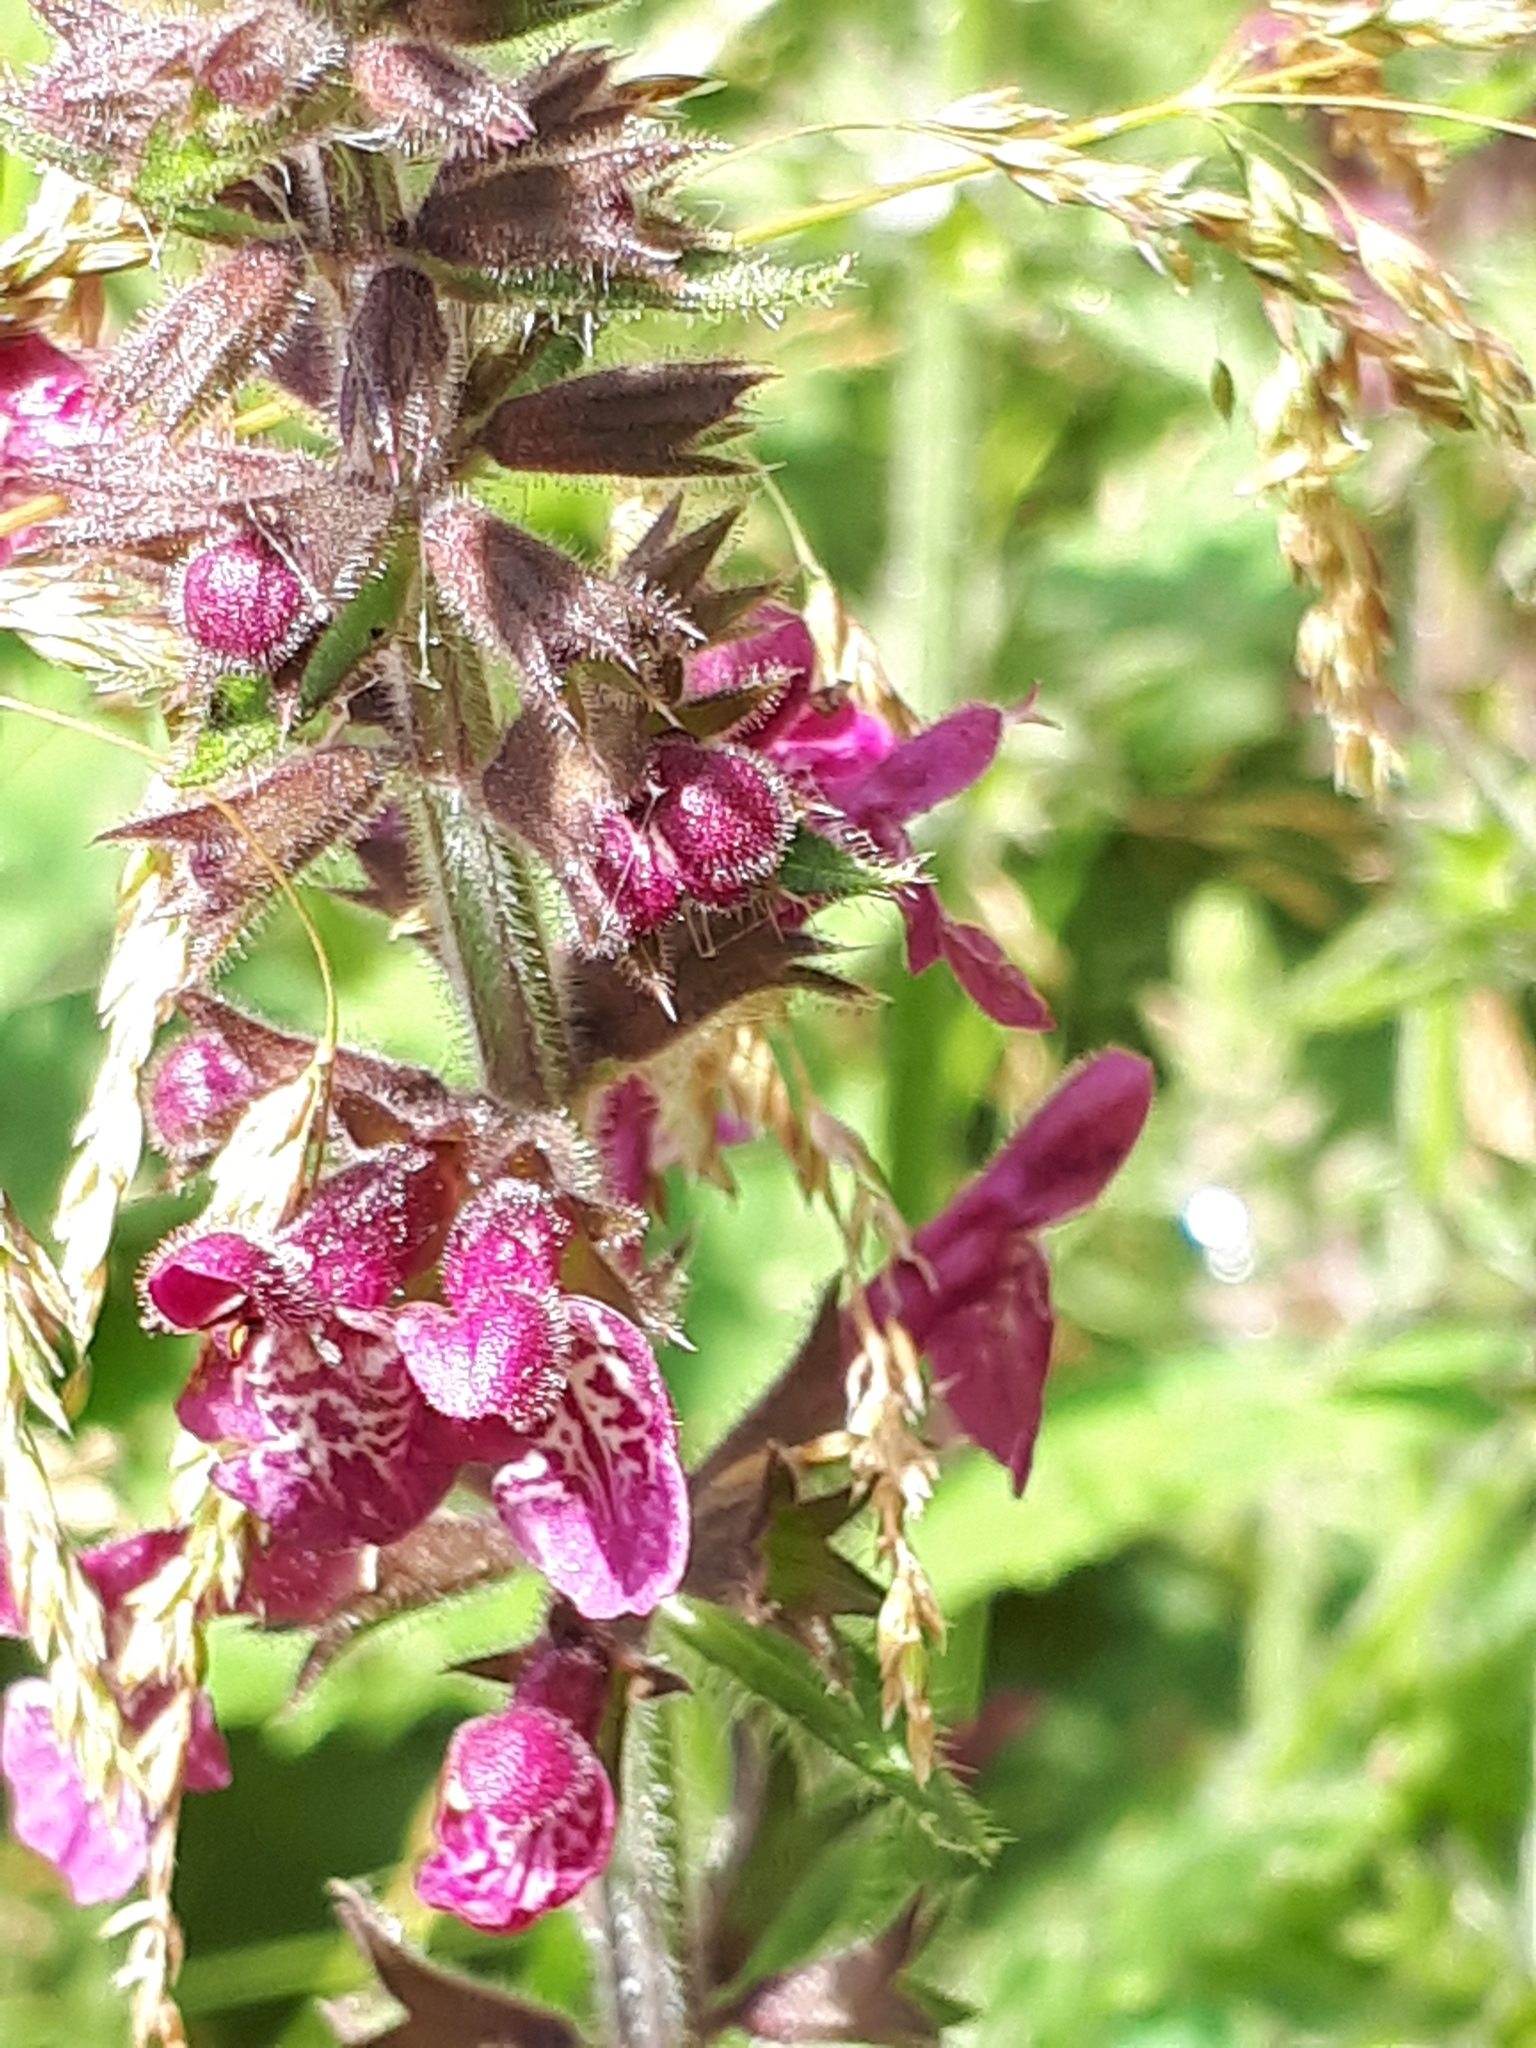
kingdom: Plantae
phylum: Tracheophyta
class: Magnoliopsida
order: Lamiales
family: Lamiaceae
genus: Stachys
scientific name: Stachys sylvatica
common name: Hedge woundwort
